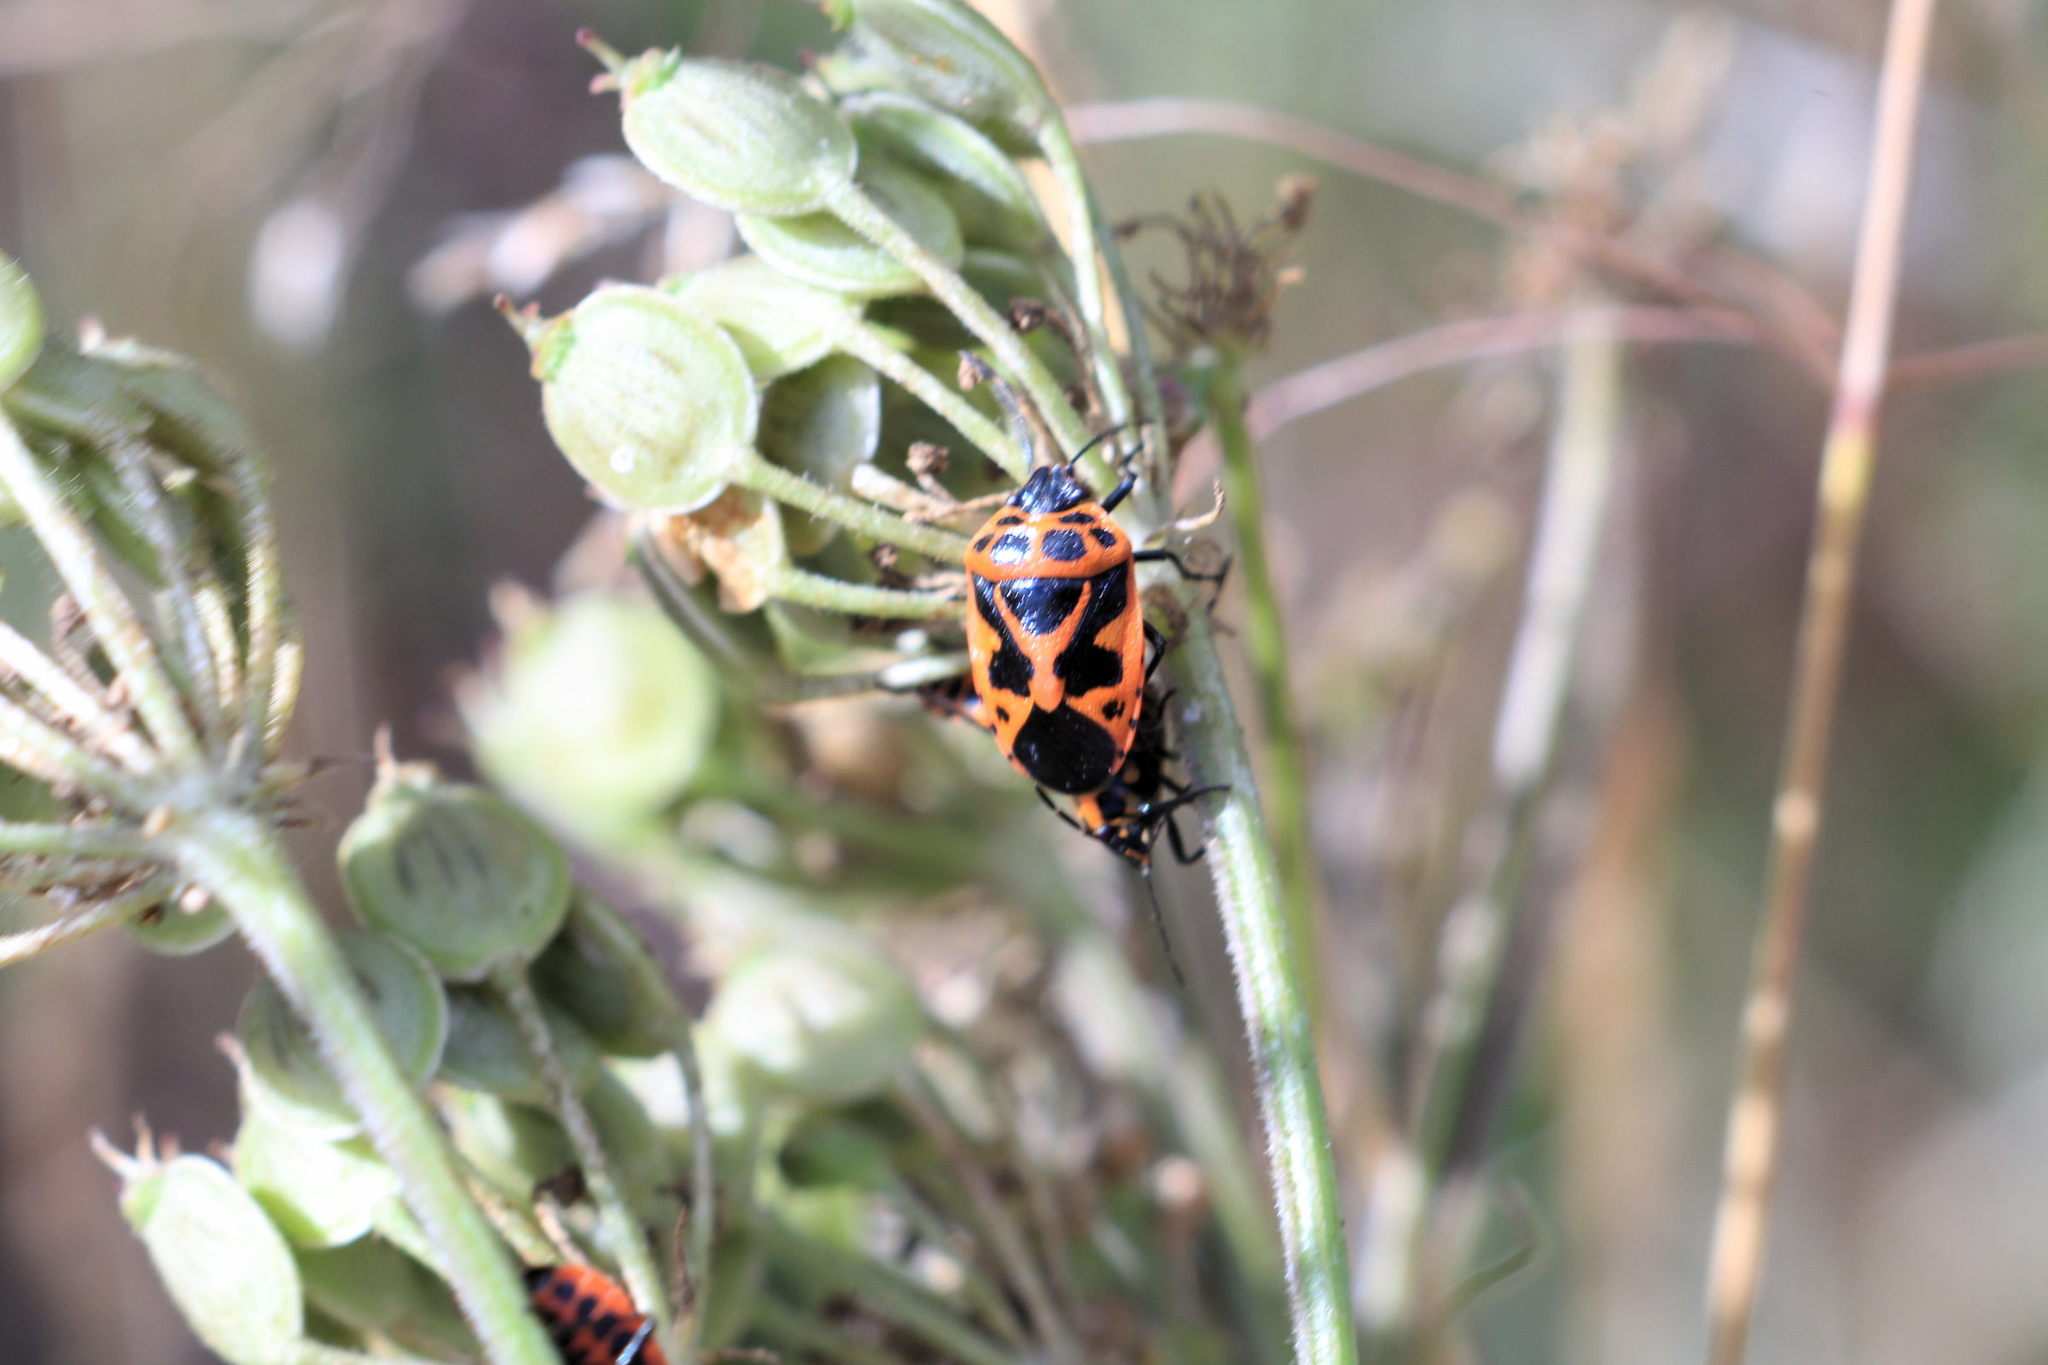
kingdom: Animalia
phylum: Arthropoda
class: Insecta
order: Hemiptera
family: Pentatomidae
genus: Eurydema
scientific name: Eurydema dominulus
